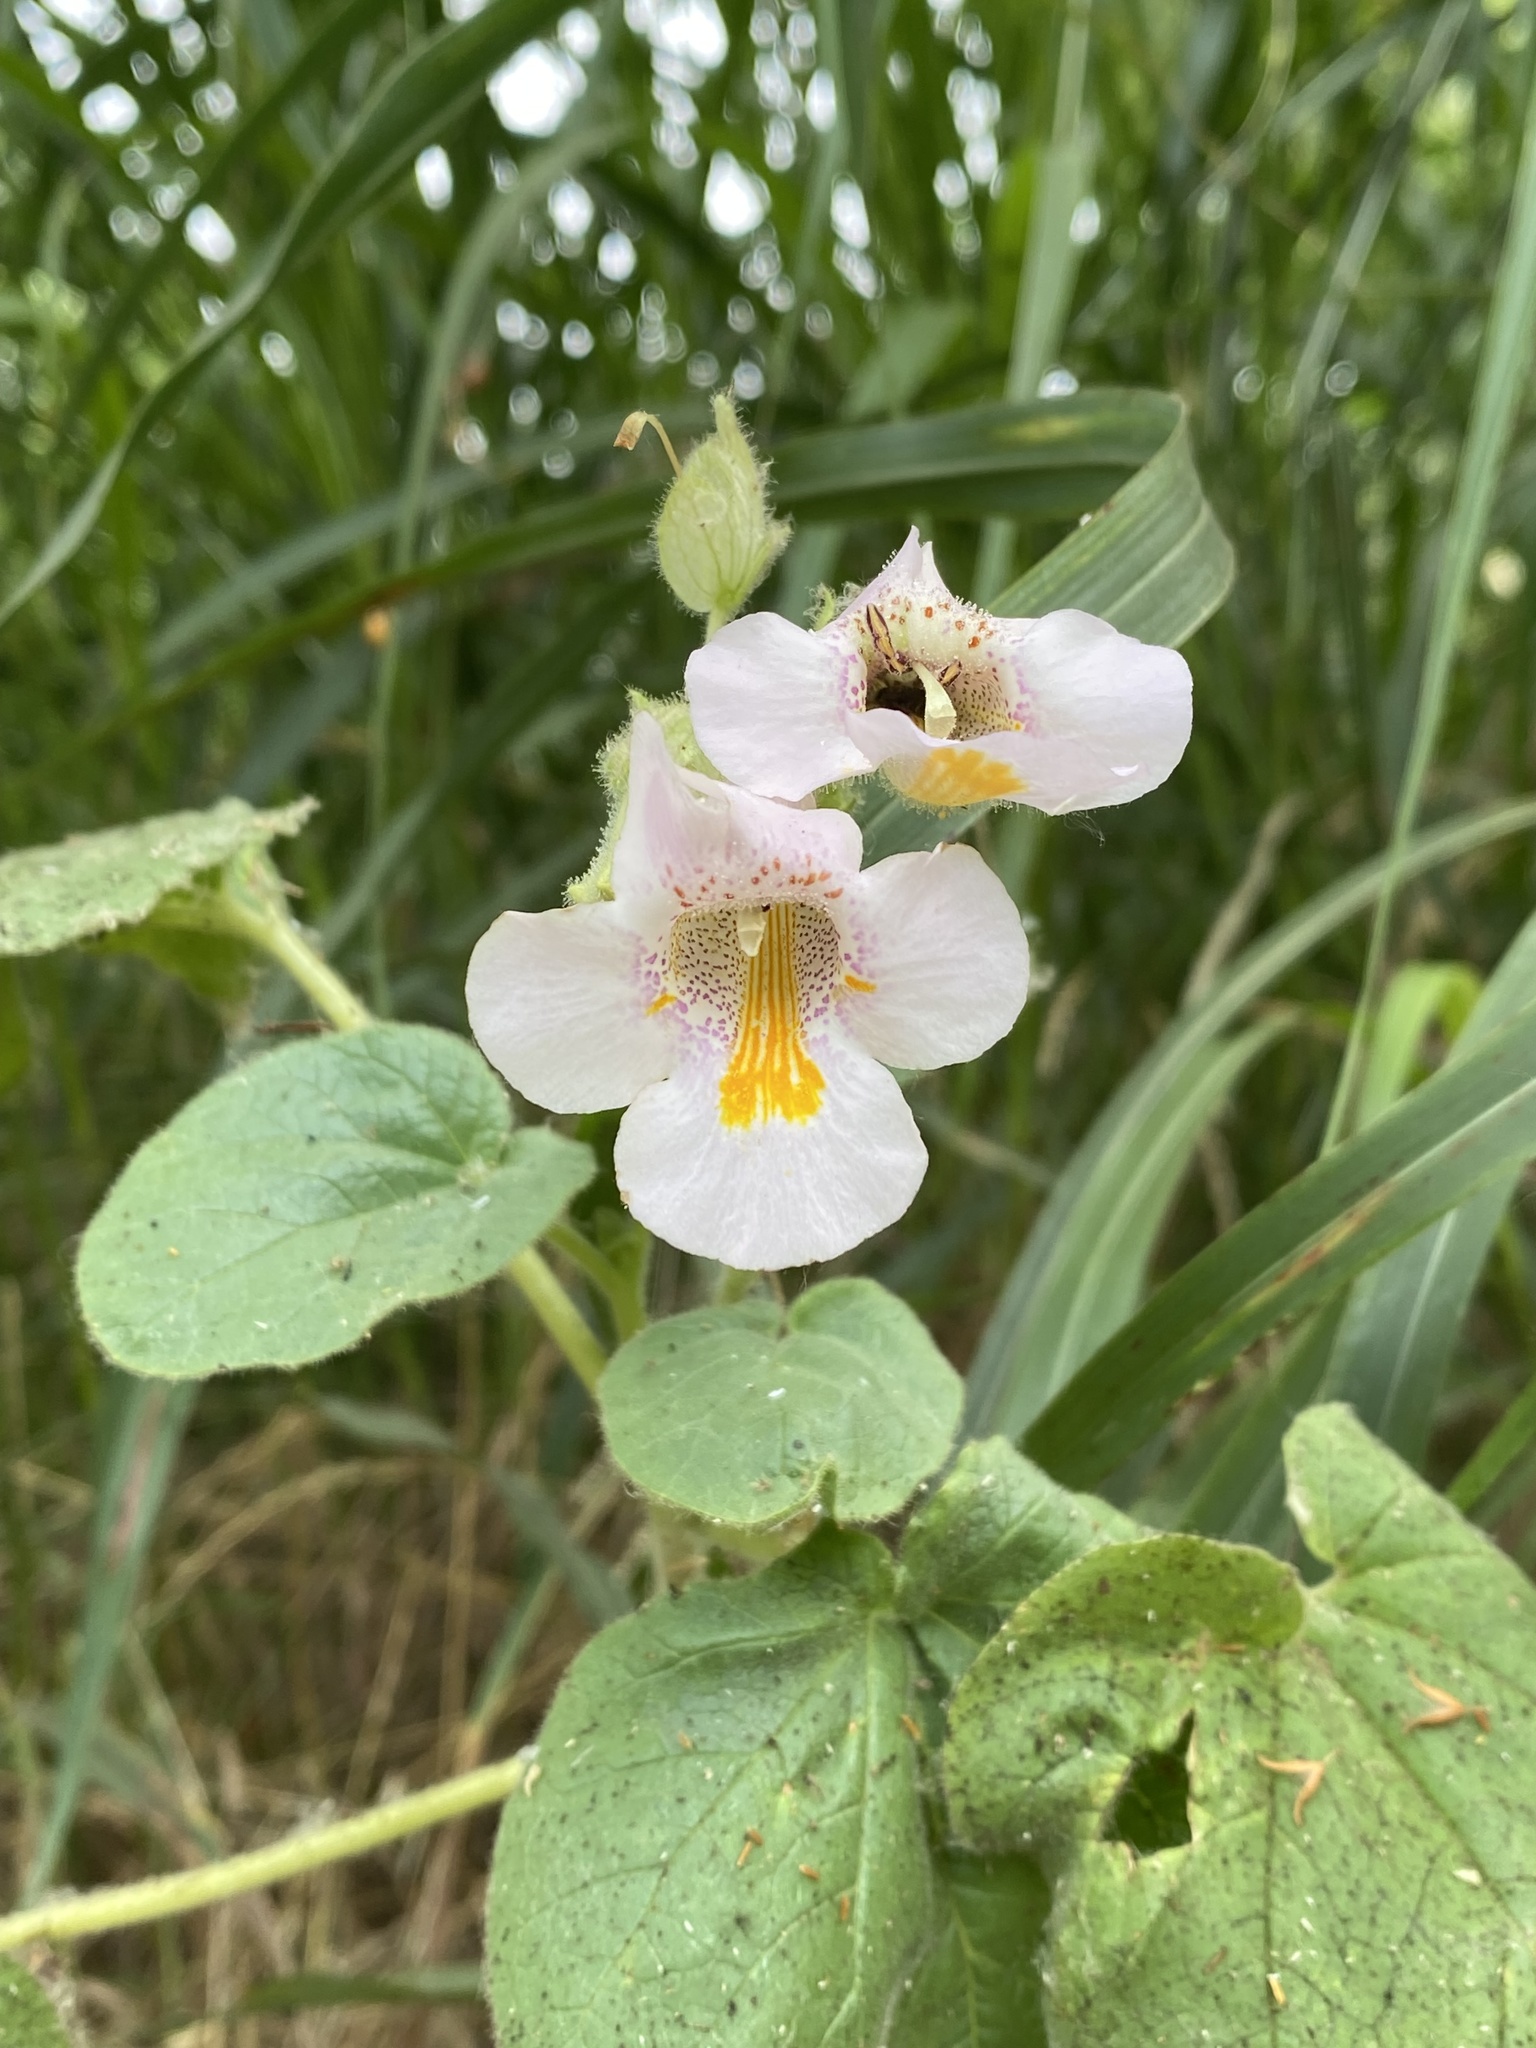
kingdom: Plantae
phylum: Tracheophyta
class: Magnoliopsida
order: Lamiales
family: Martyniaceae
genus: Proboscidea
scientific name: Proboscidea louisianica
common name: Elephant tusks
